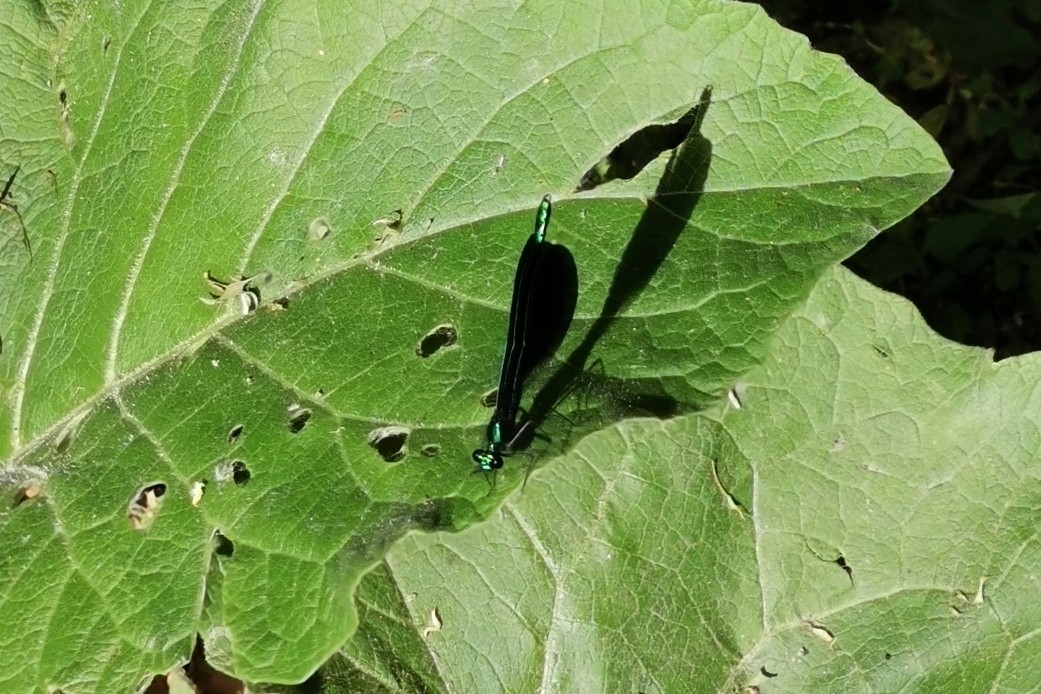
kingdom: Animalia
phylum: Arthropoda
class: Insecta
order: Odonata
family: Calopterygidae
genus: Calopteryx
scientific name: Calopteryx maculata
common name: Ebony jewelwing
